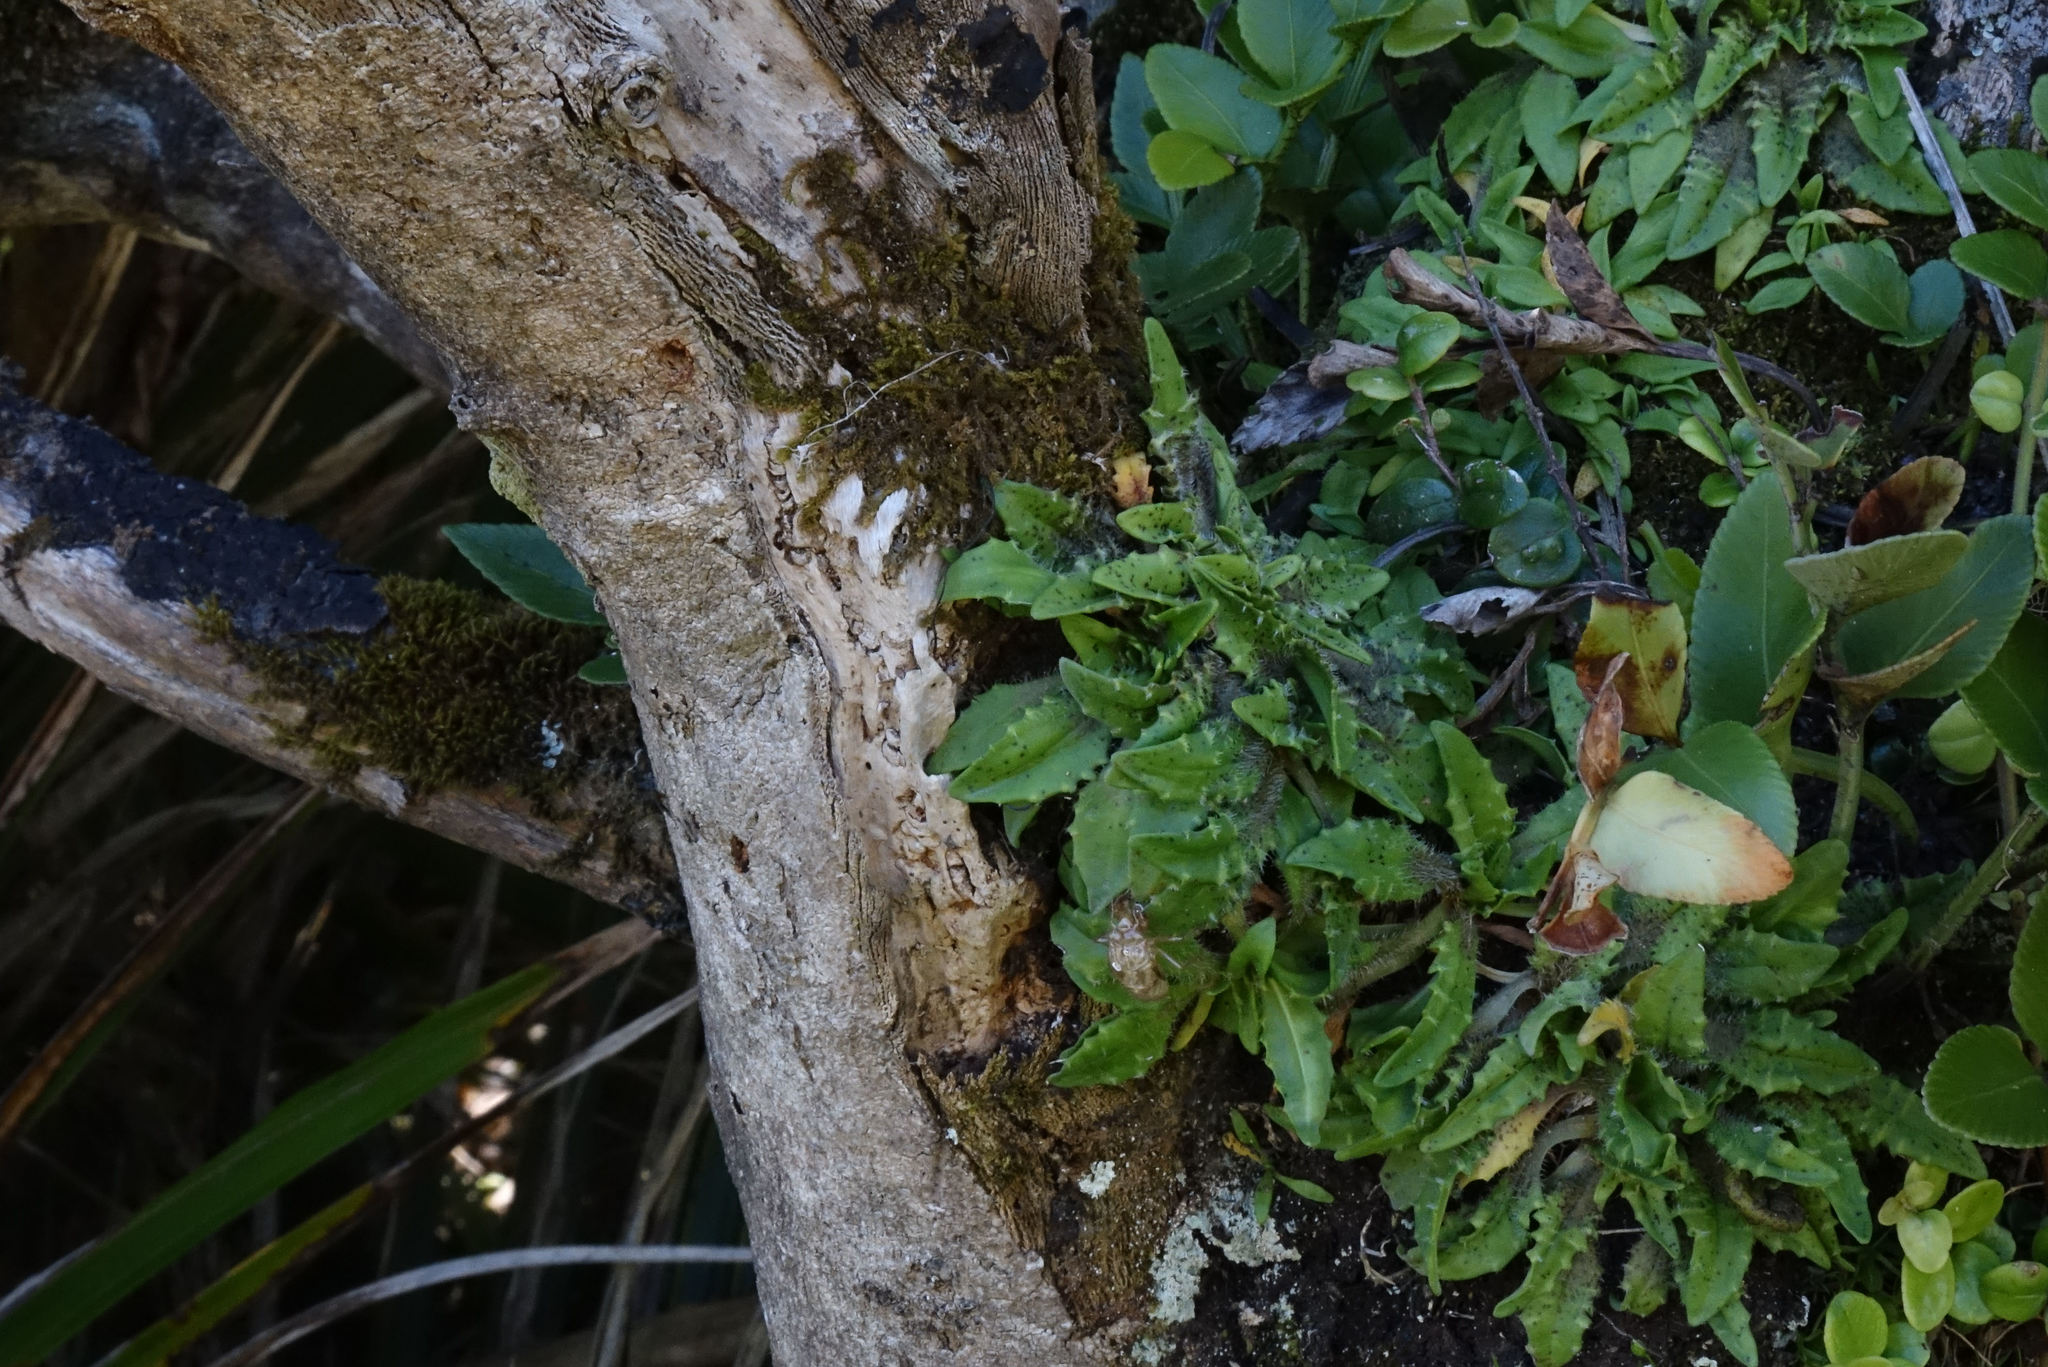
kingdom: Plantae
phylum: Tracheophyta
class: Magnoliopsida
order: Lamiales
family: Plantaginaceae
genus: Plantago
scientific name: Plantago triandra
